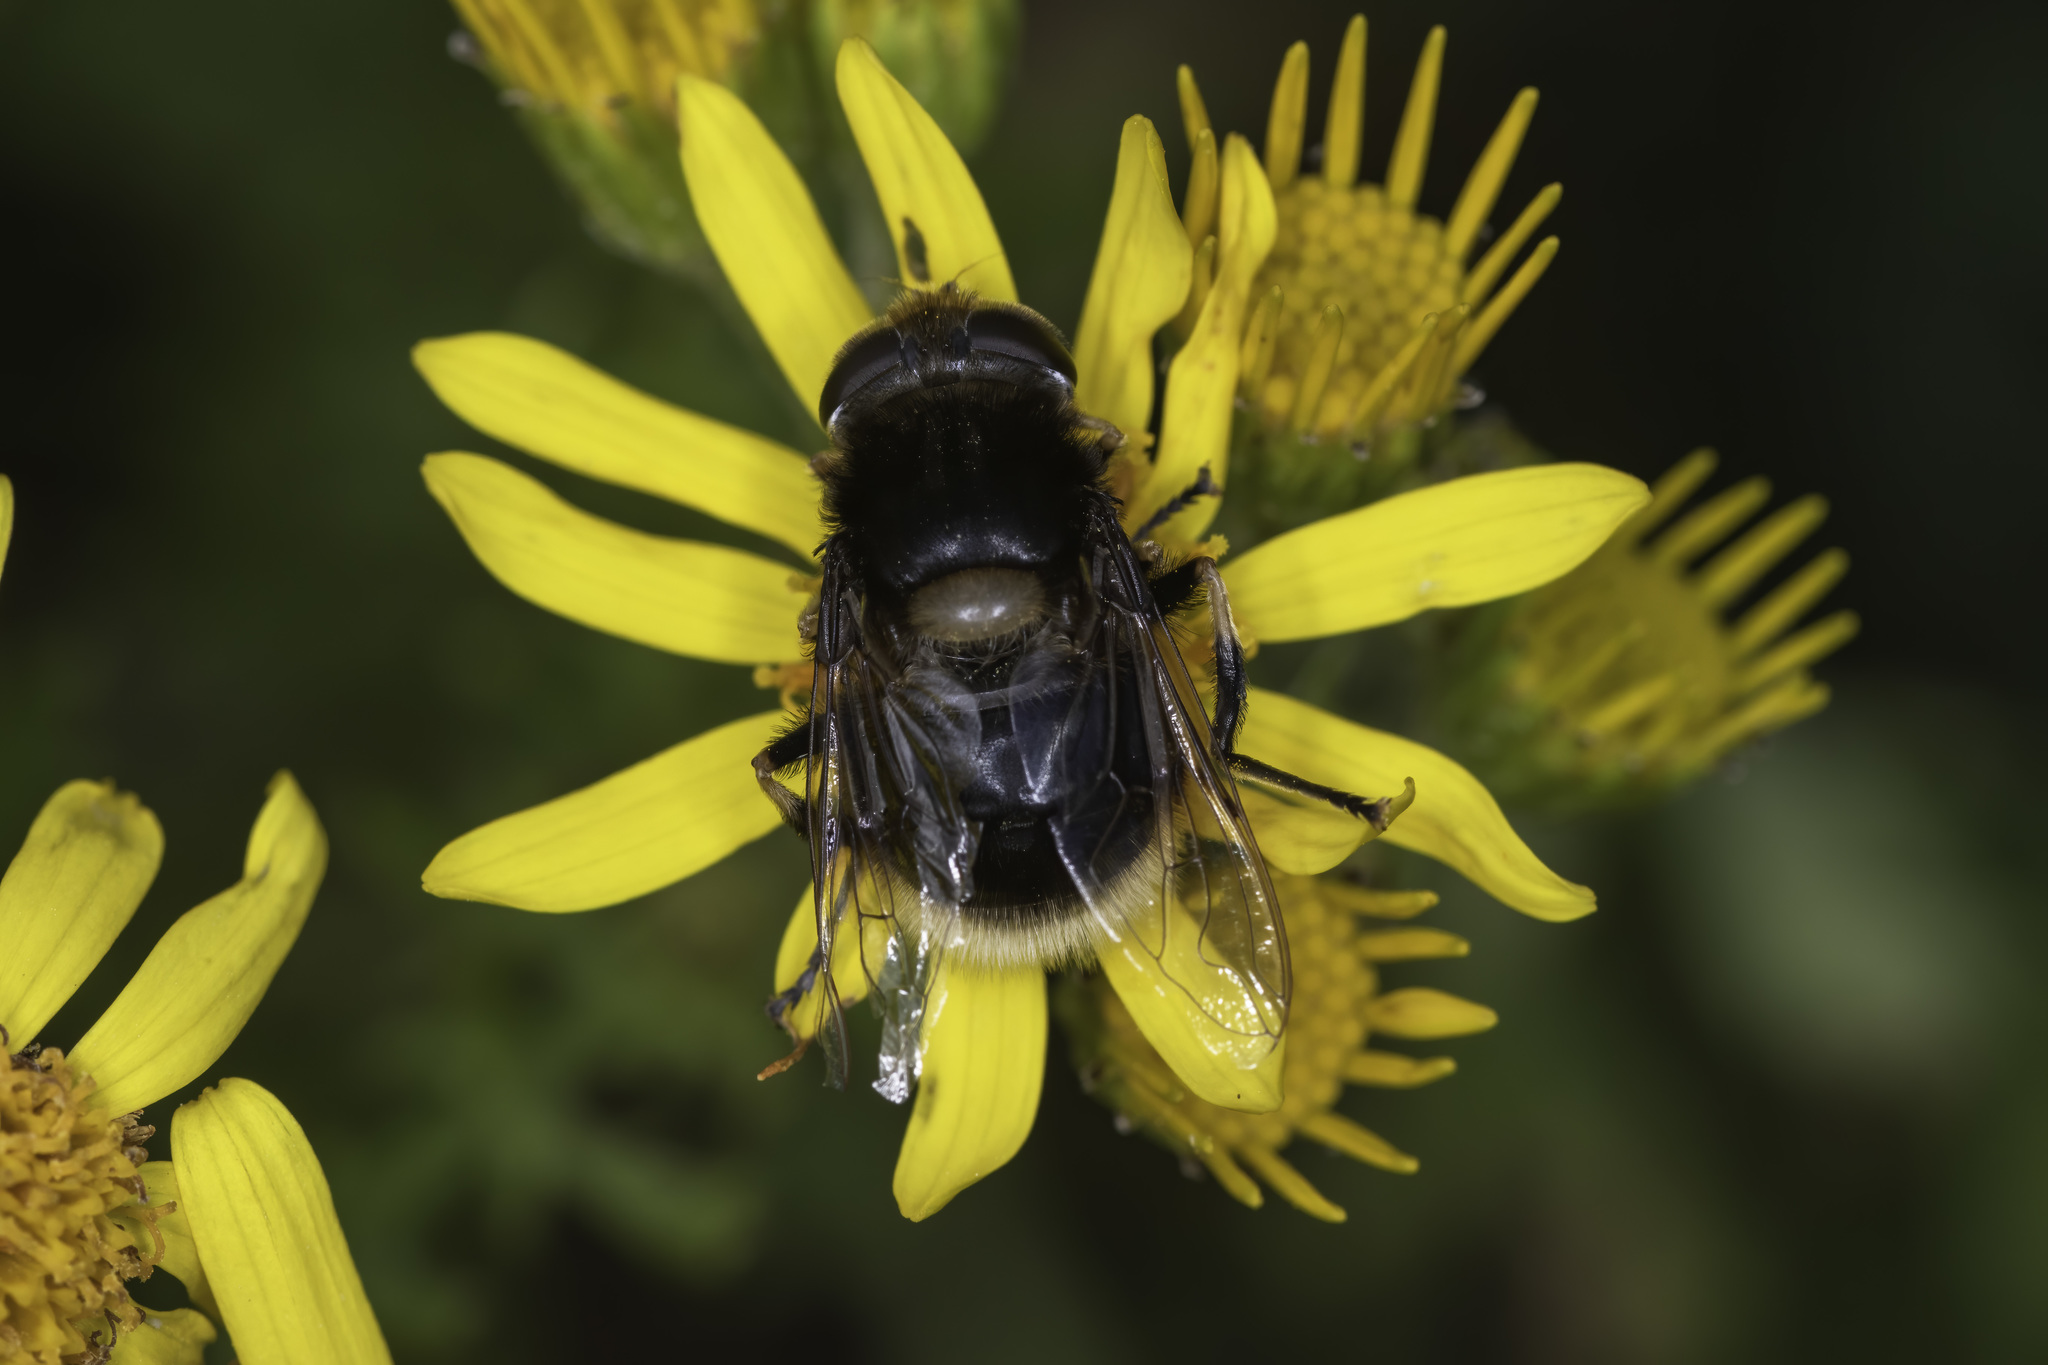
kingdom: Animalia
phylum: Arthropoda
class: Insecta
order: Diptera
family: Syrphidae
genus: Eristalis
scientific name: Eristalis intricaria
